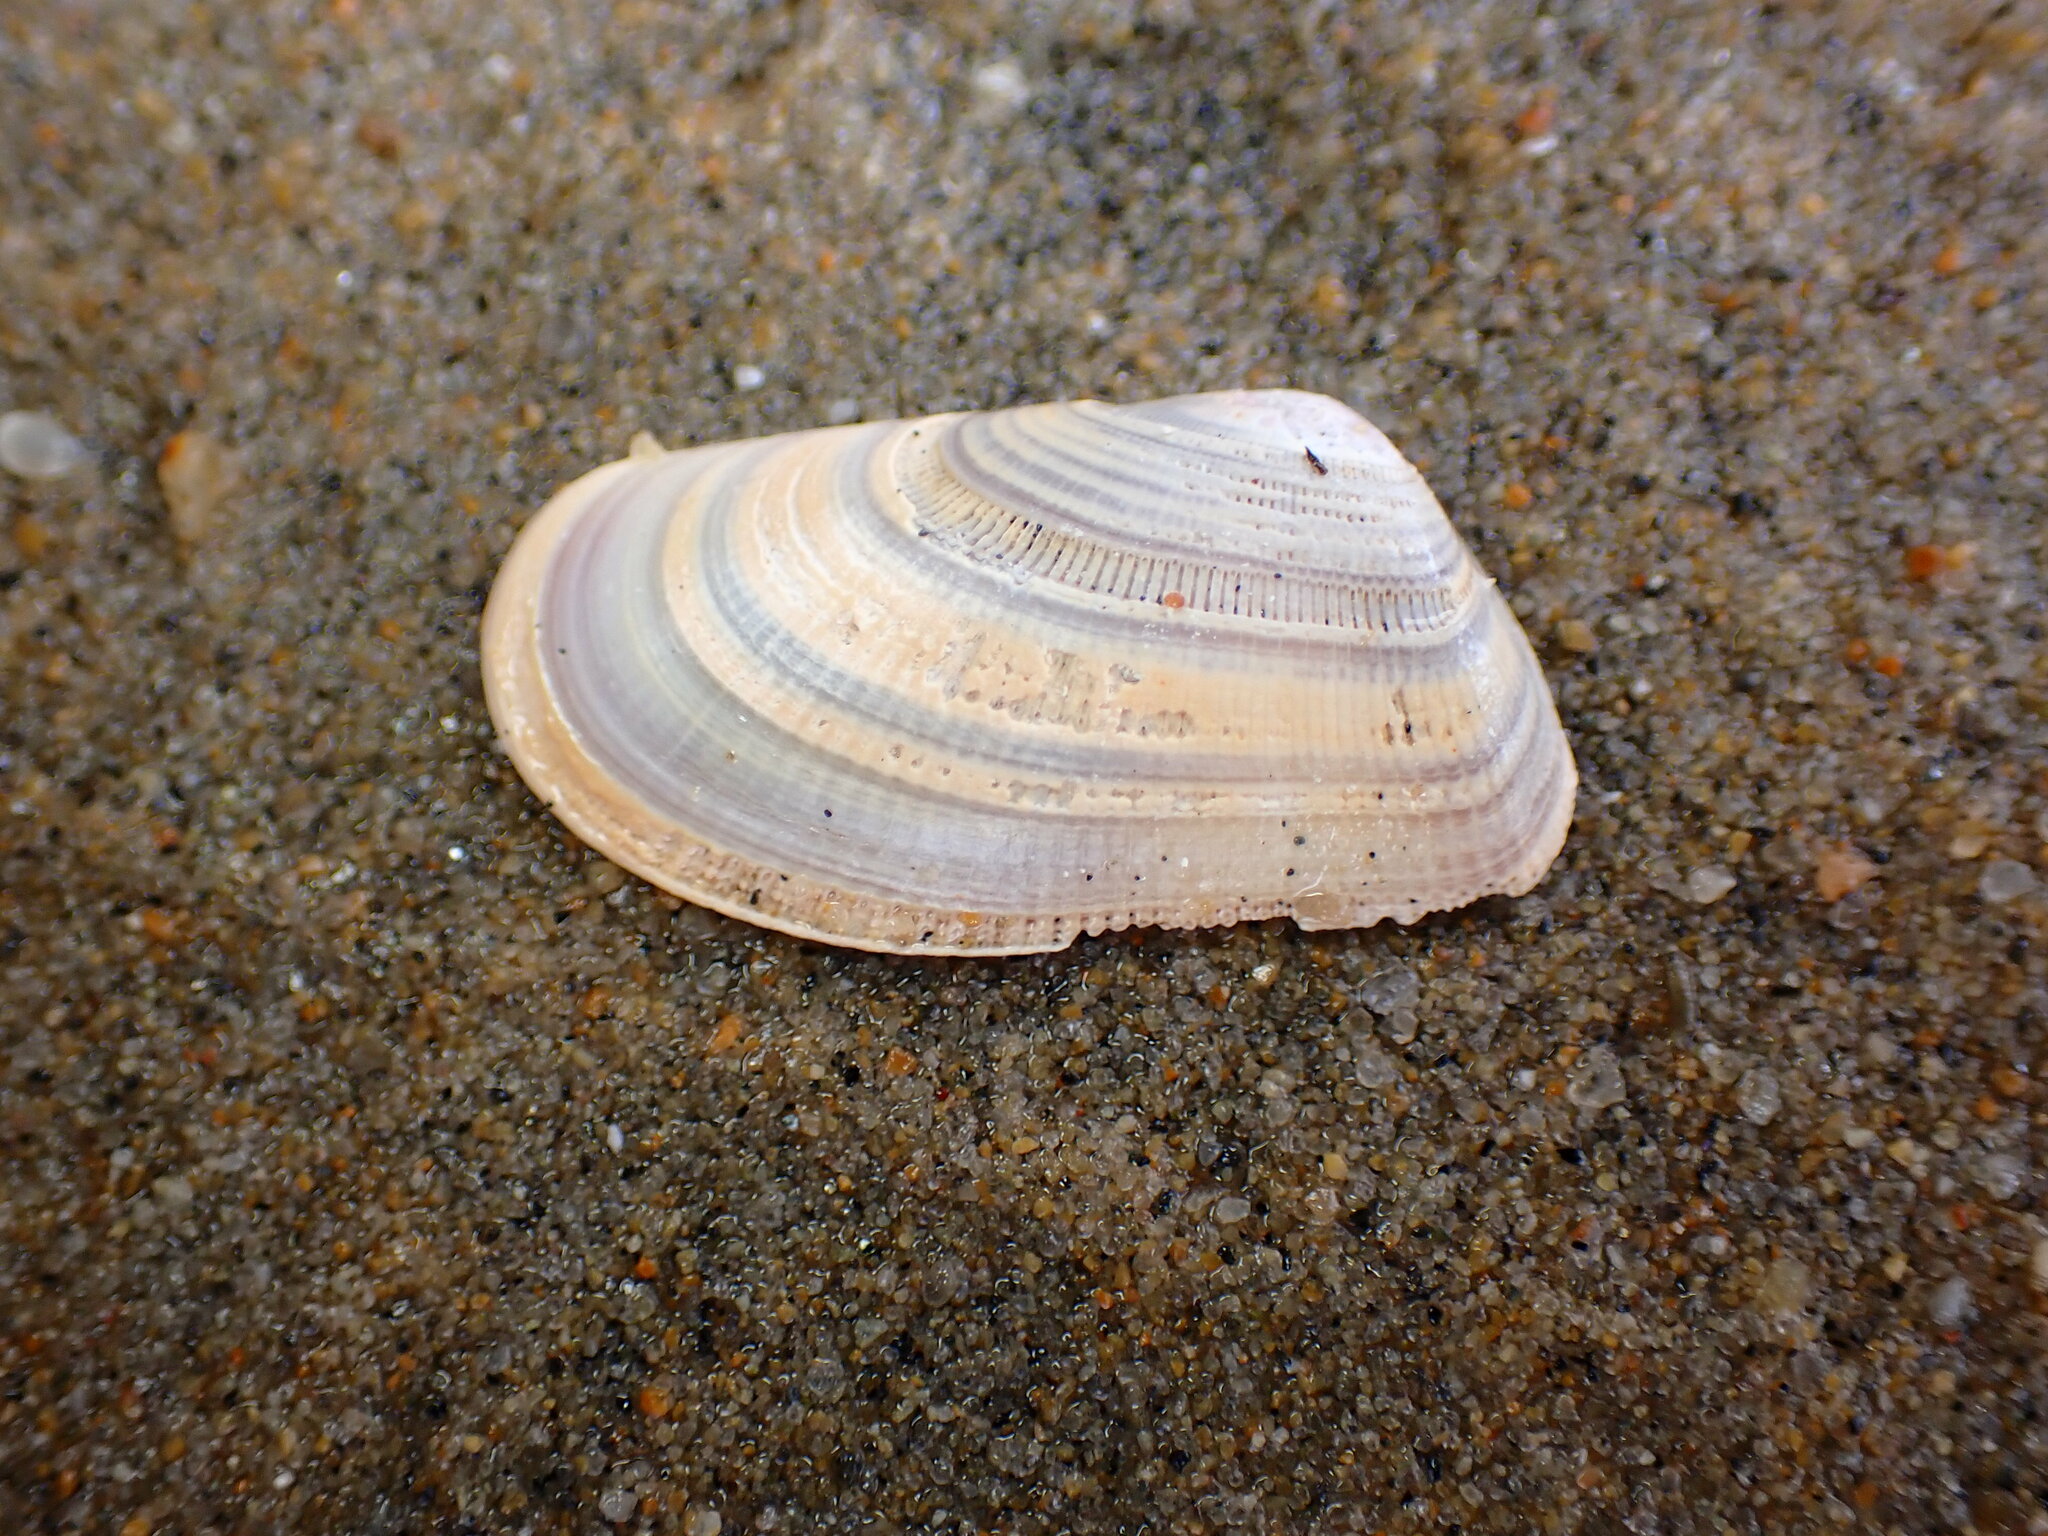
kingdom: Animalia
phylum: Mollusca
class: Bivalvia
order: Cardiida
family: Donacidae
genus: Donax
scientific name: Donax gouldii
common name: Gould beanclam
